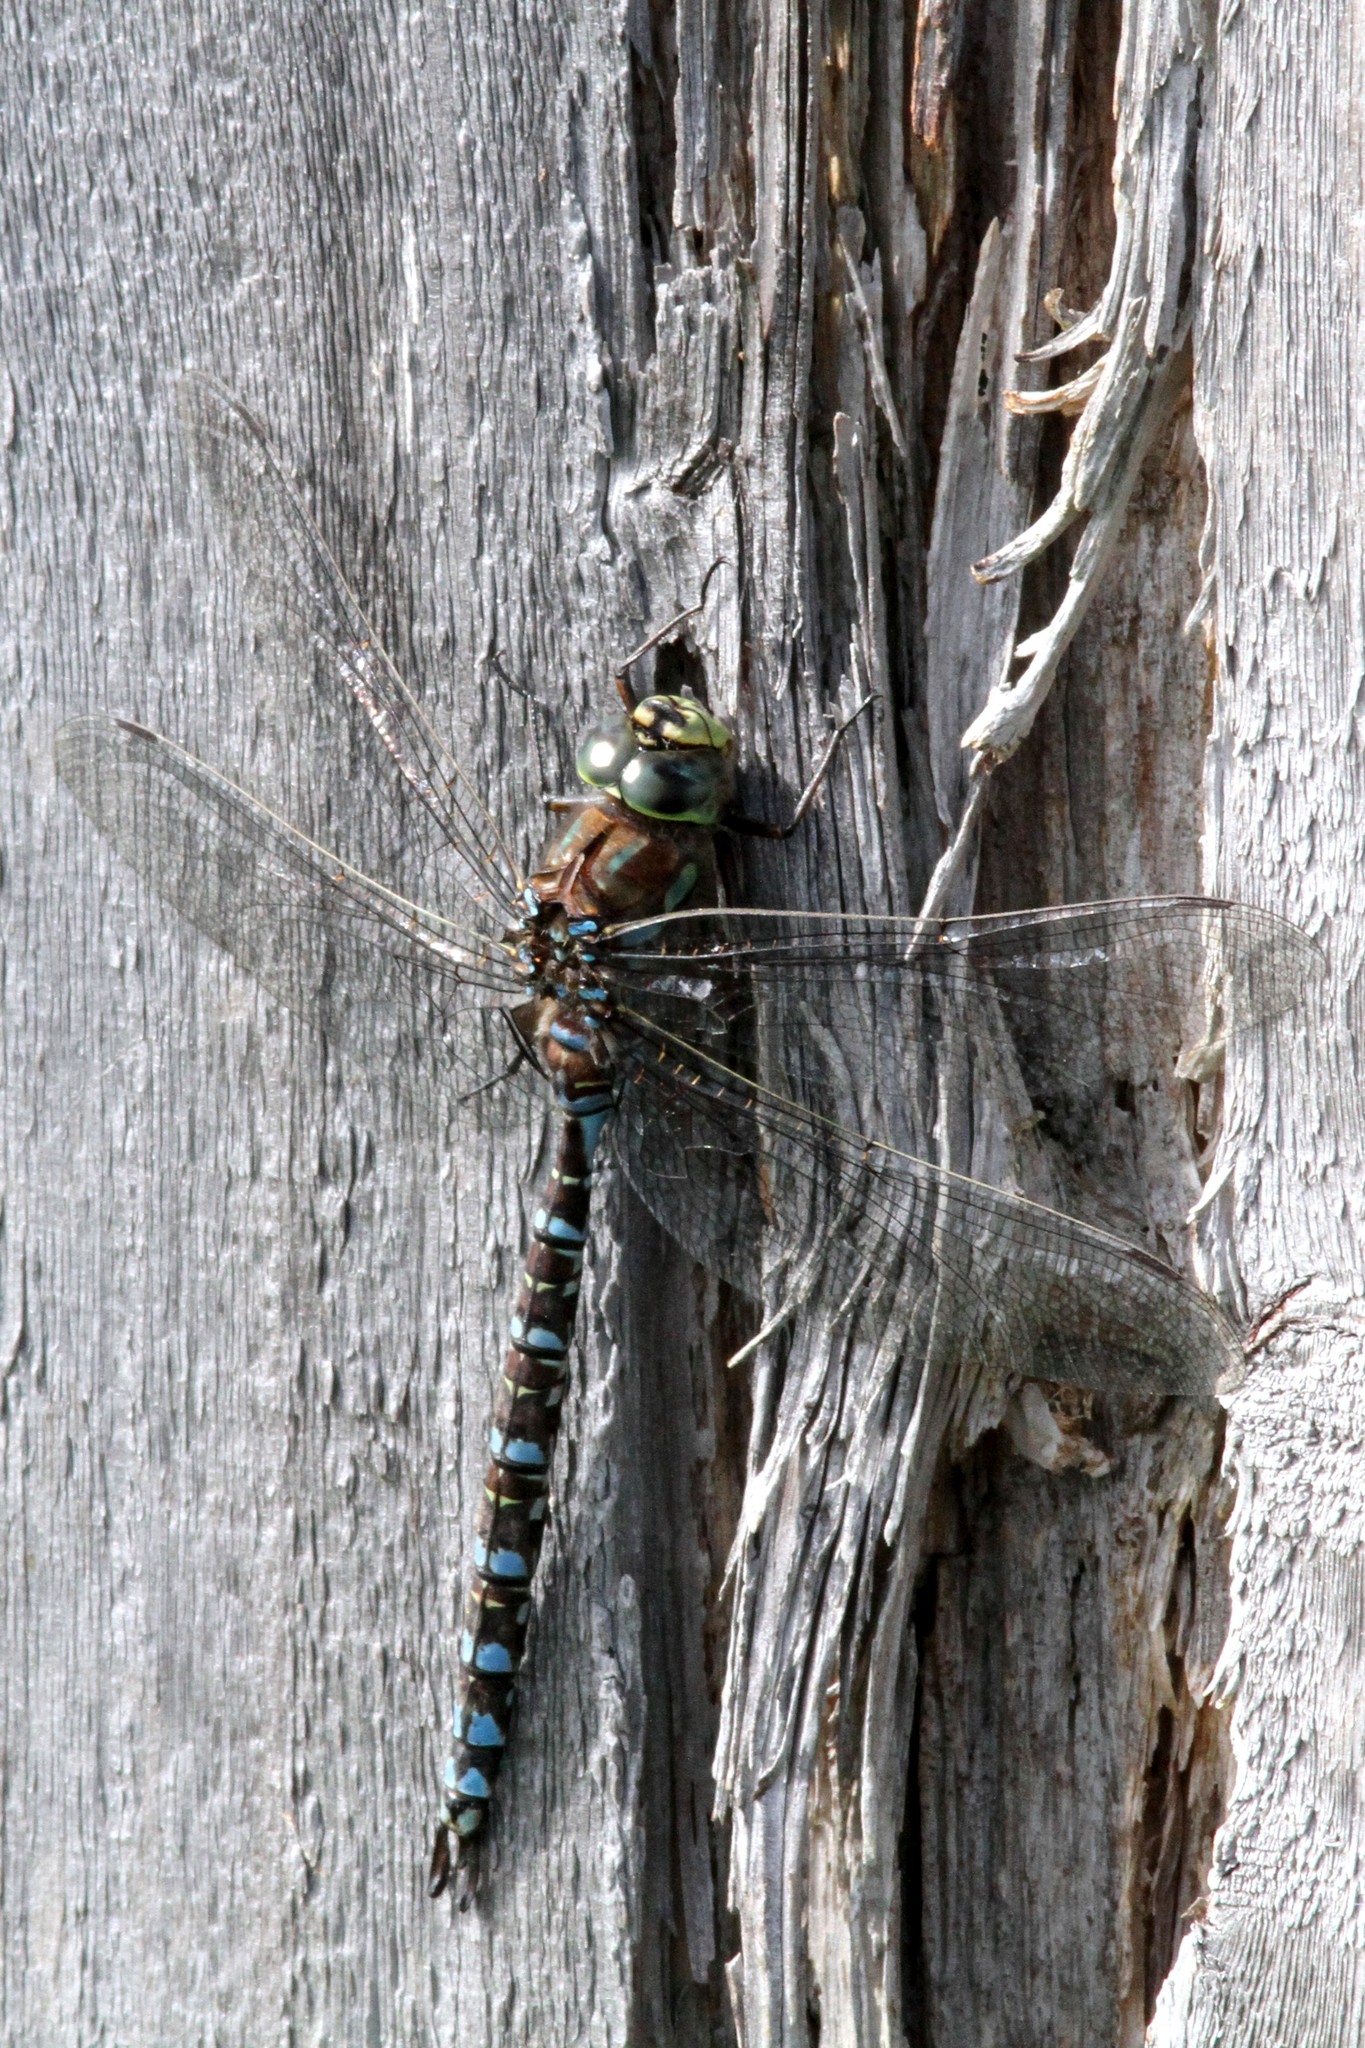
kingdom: Animalia
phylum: Arthropoda
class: Insecta
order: Odonata
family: Aeshnidae
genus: Aeshna
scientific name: Aeshna eremita
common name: Lake darner
